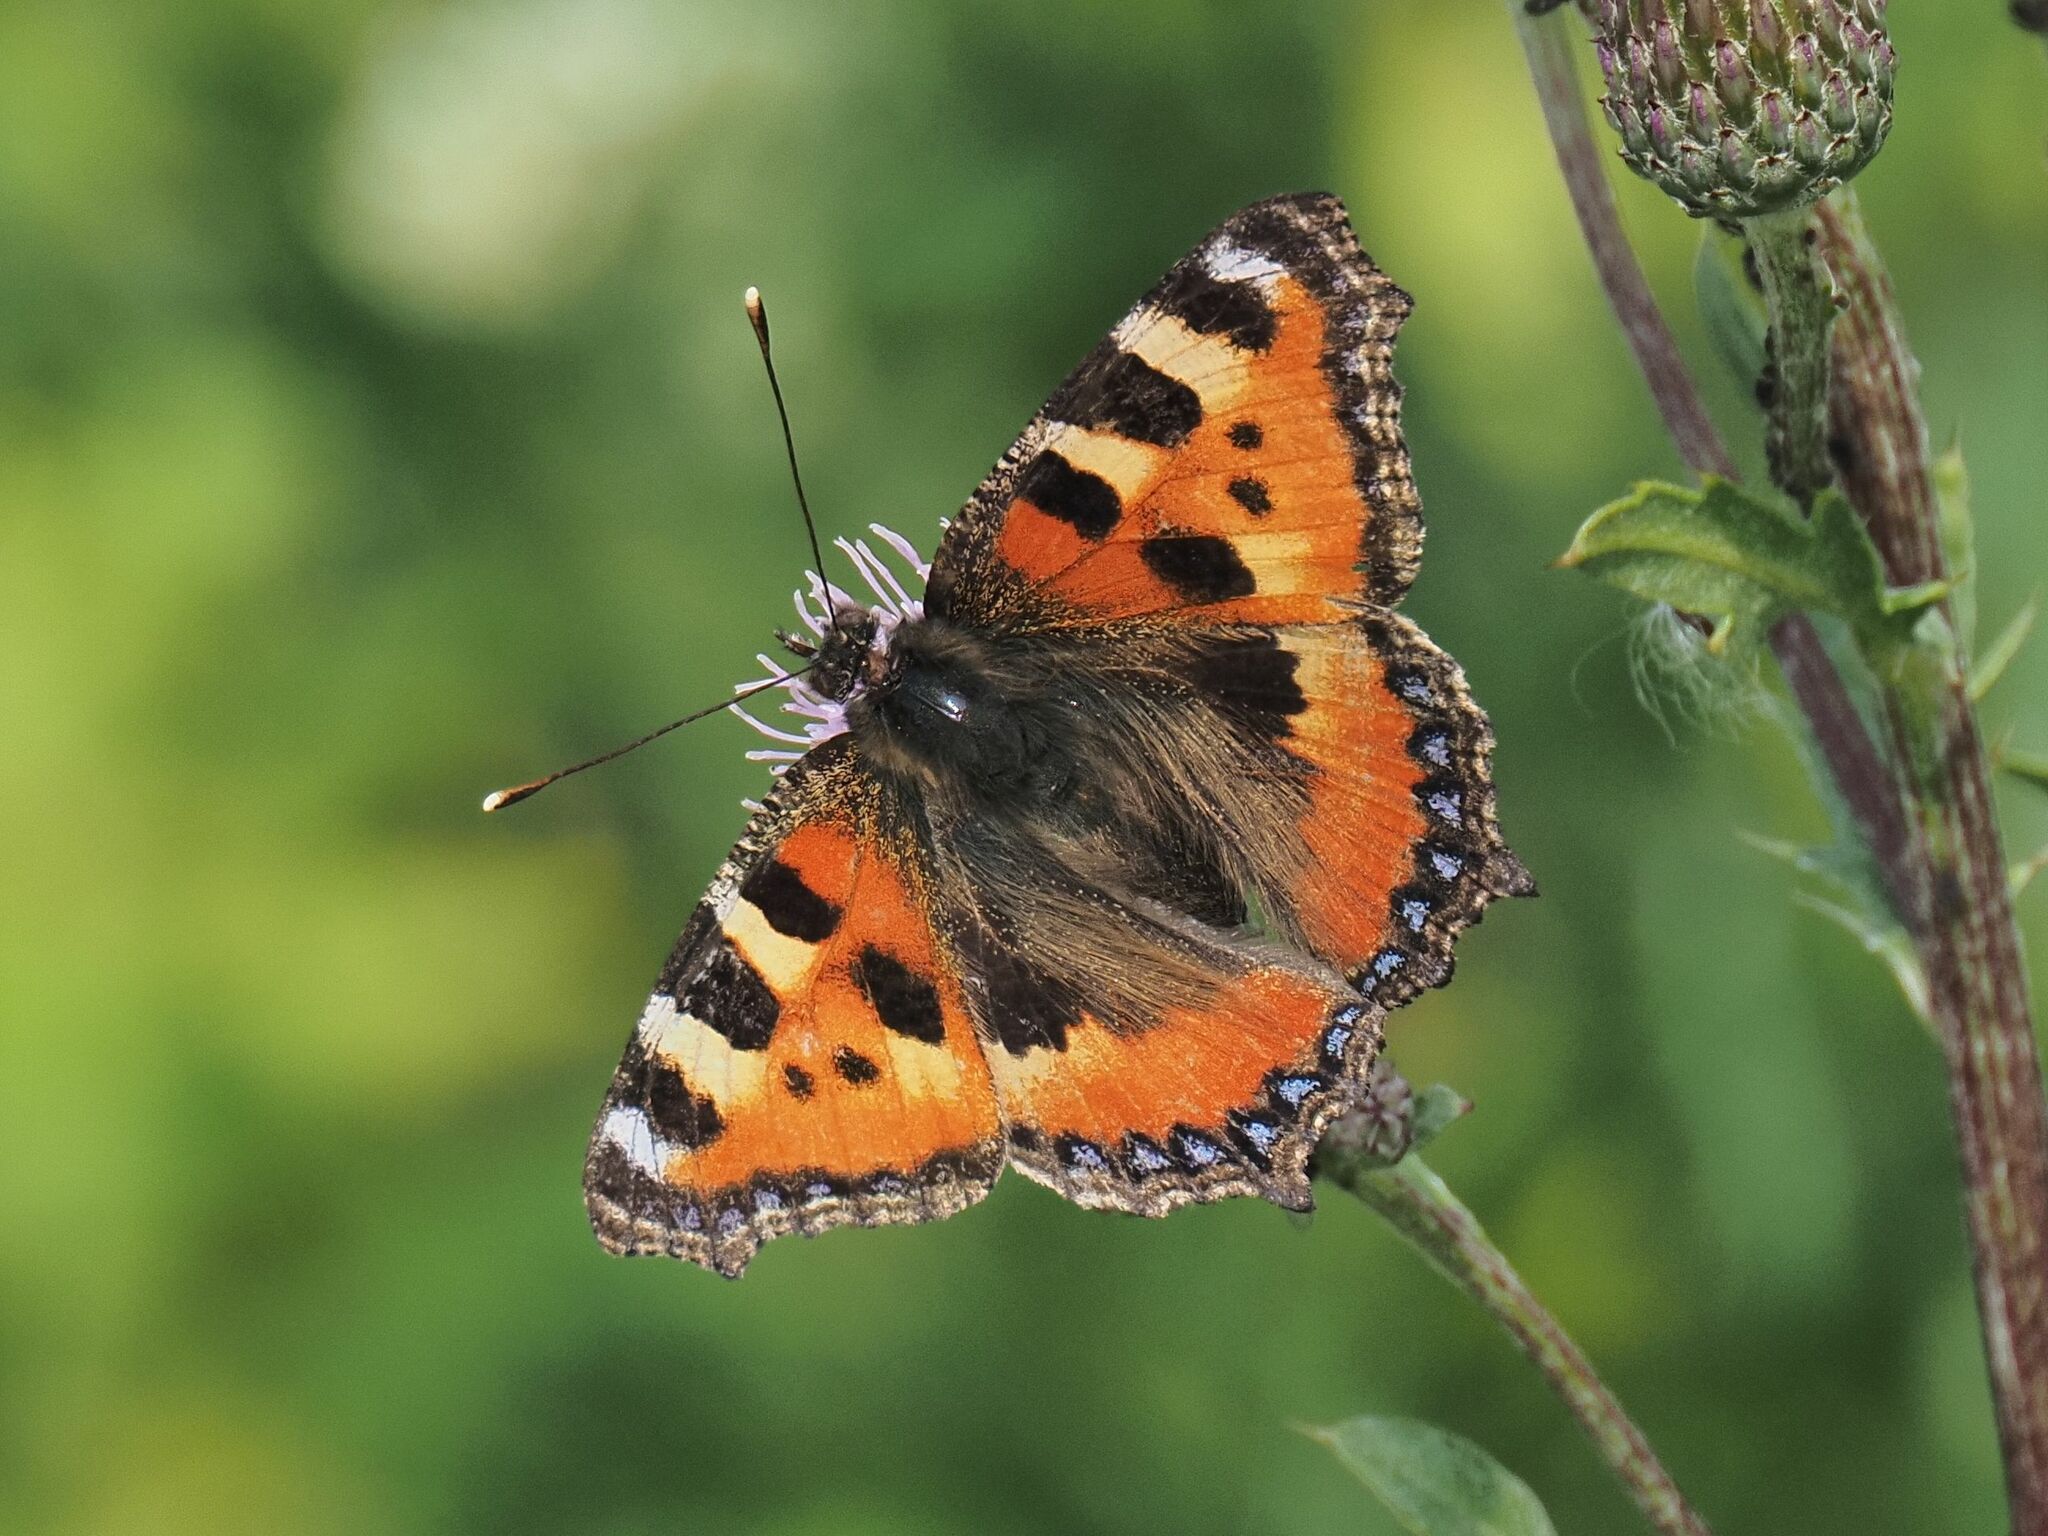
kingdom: Animalia
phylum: Arthropoda
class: Insecta
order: Lepidoptera
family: Nymphalidae
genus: Aglais
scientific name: Aglais urticae
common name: Small tortoiseshell
